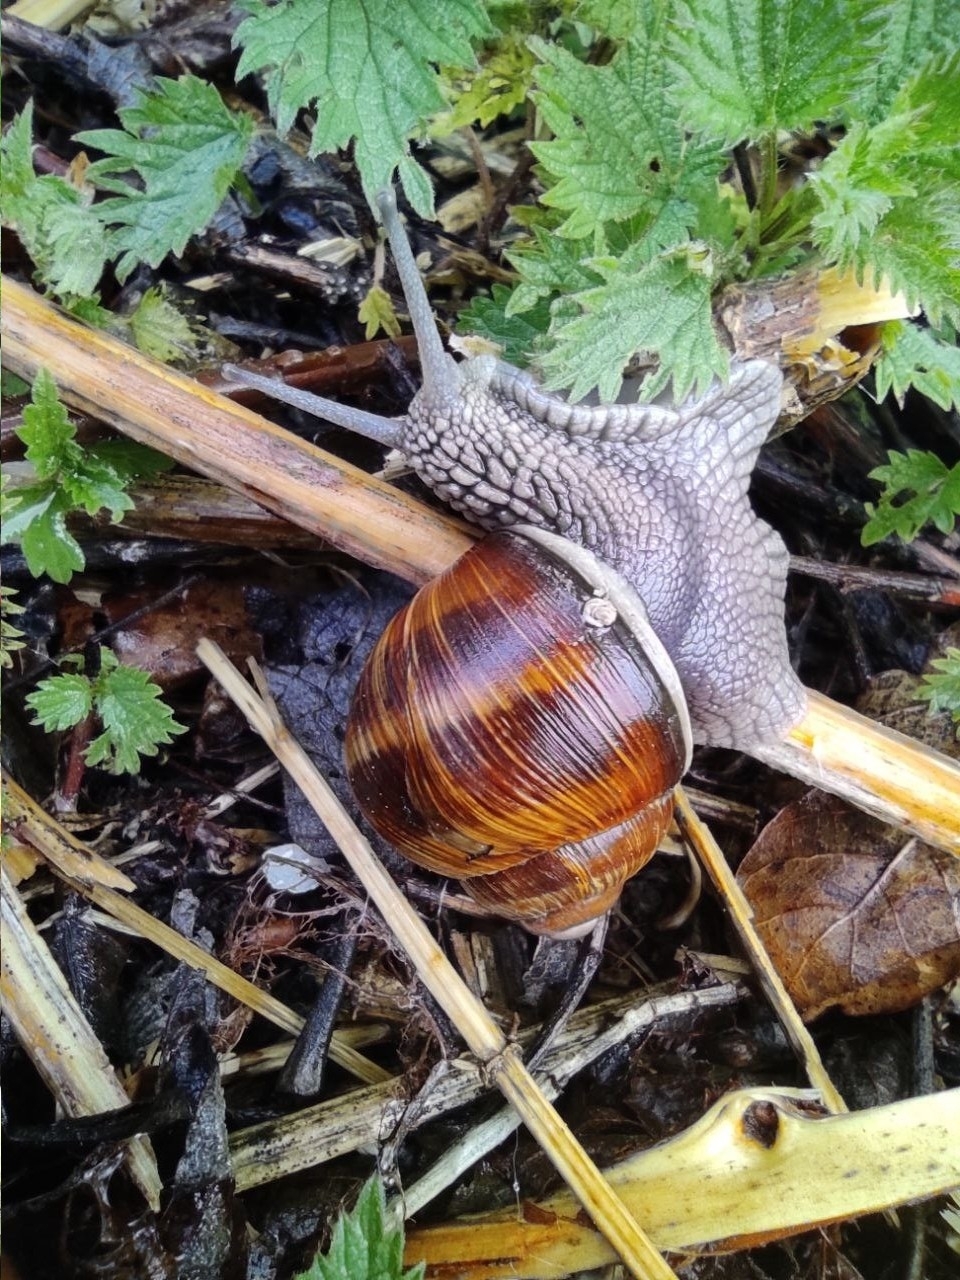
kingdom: Animalia
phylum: Mollusca
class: Gastropoda
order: Stylommatophora
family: Helicidae
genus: Helix
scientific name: Helix pomatia
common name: Roman snail
